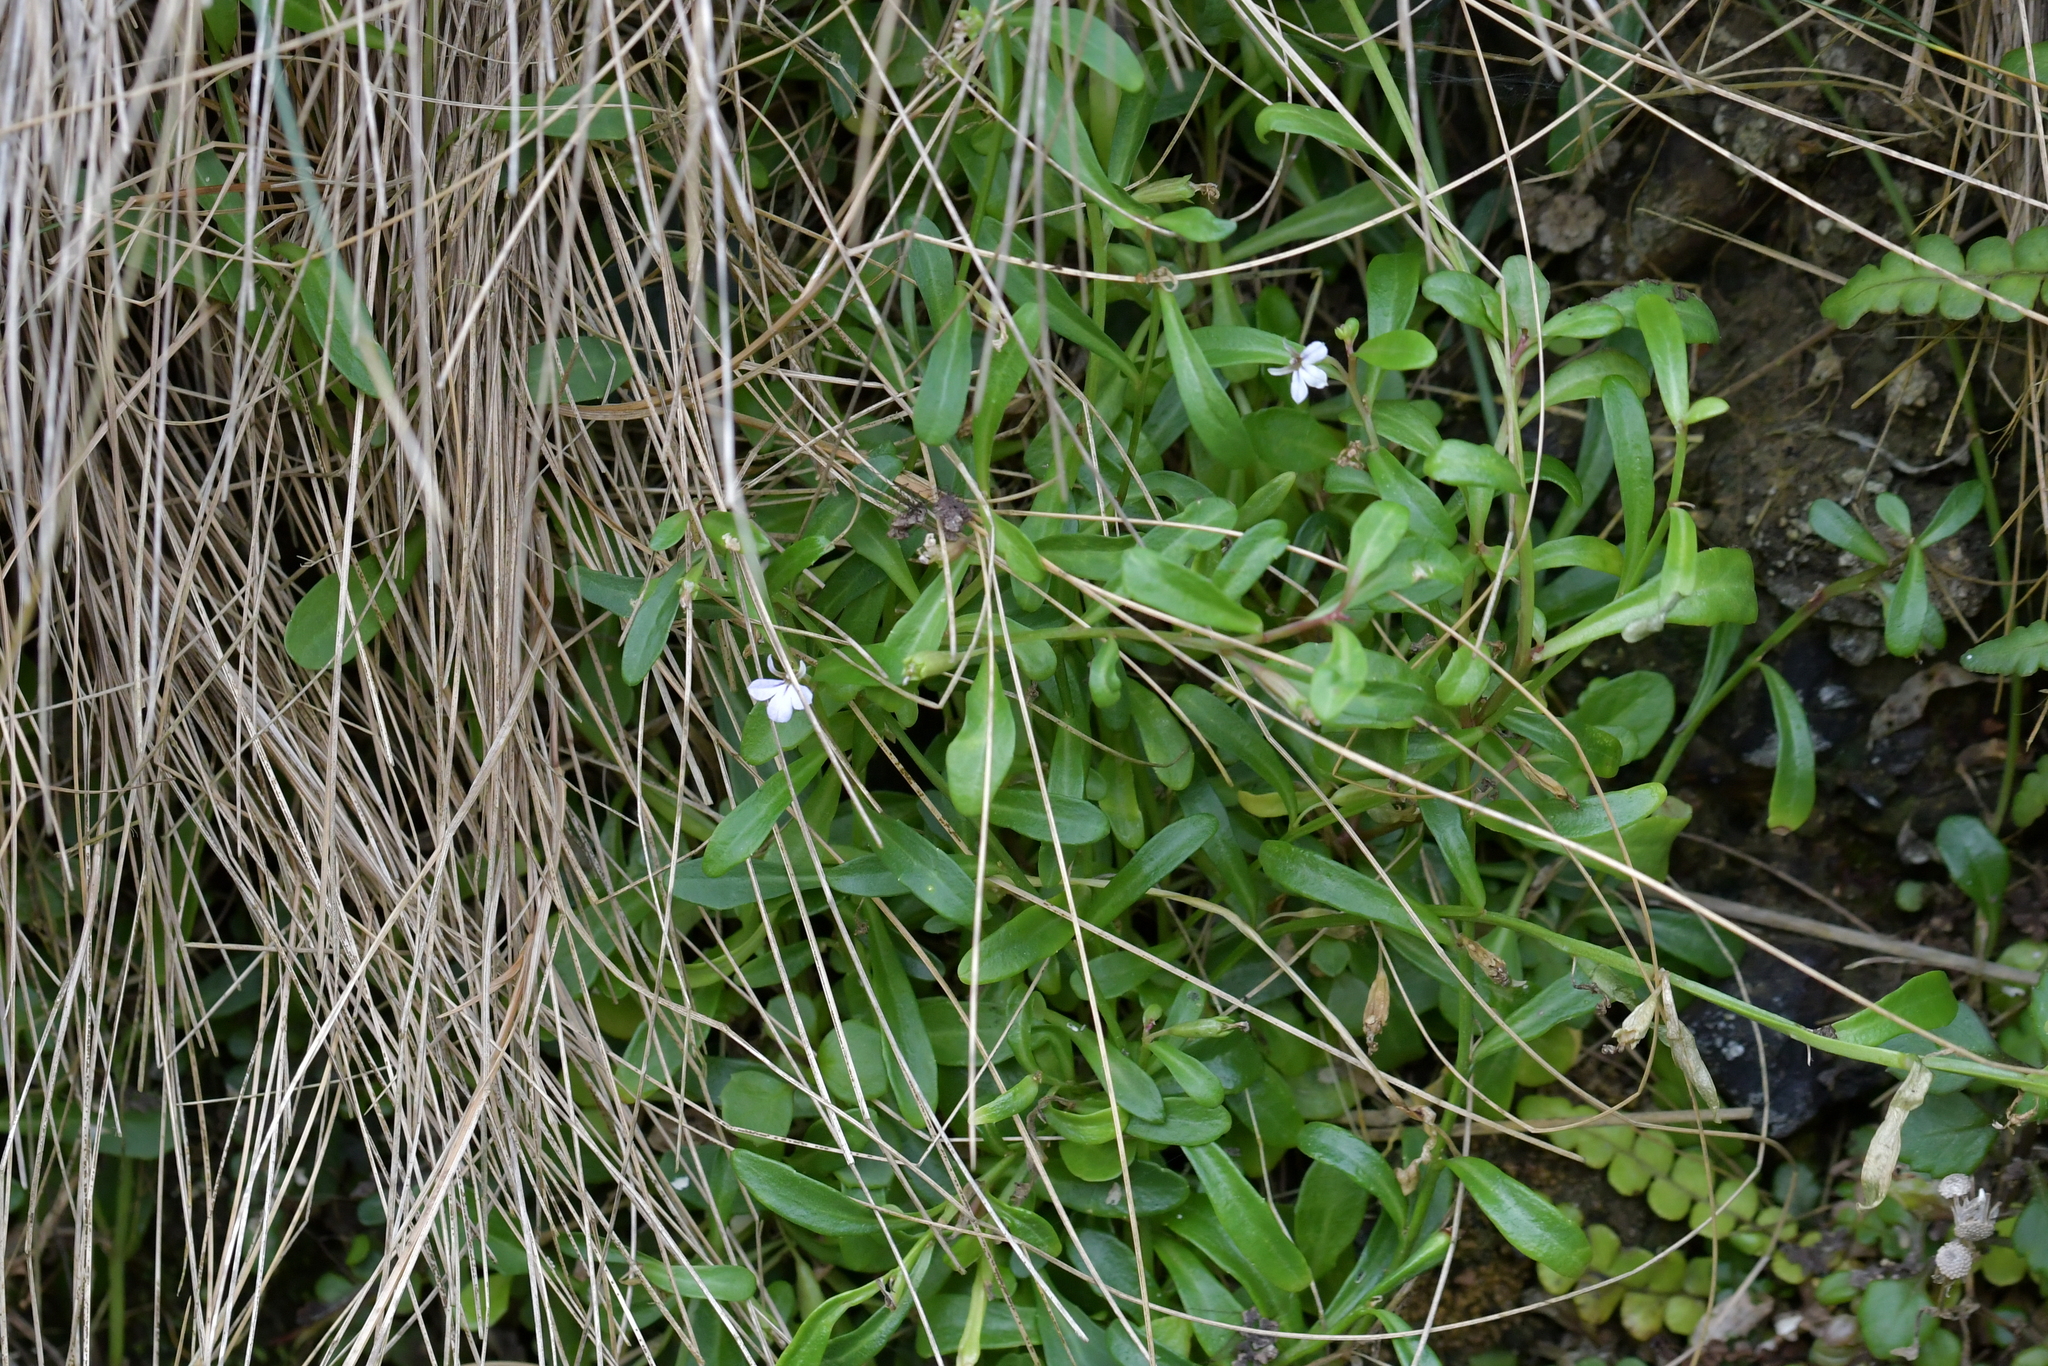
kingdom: Plantae
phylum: Tracheophyta
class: Magnoliopsida
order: Asterales
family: Campanulaceae
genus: Lobelia
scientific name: Lobelia anceps
